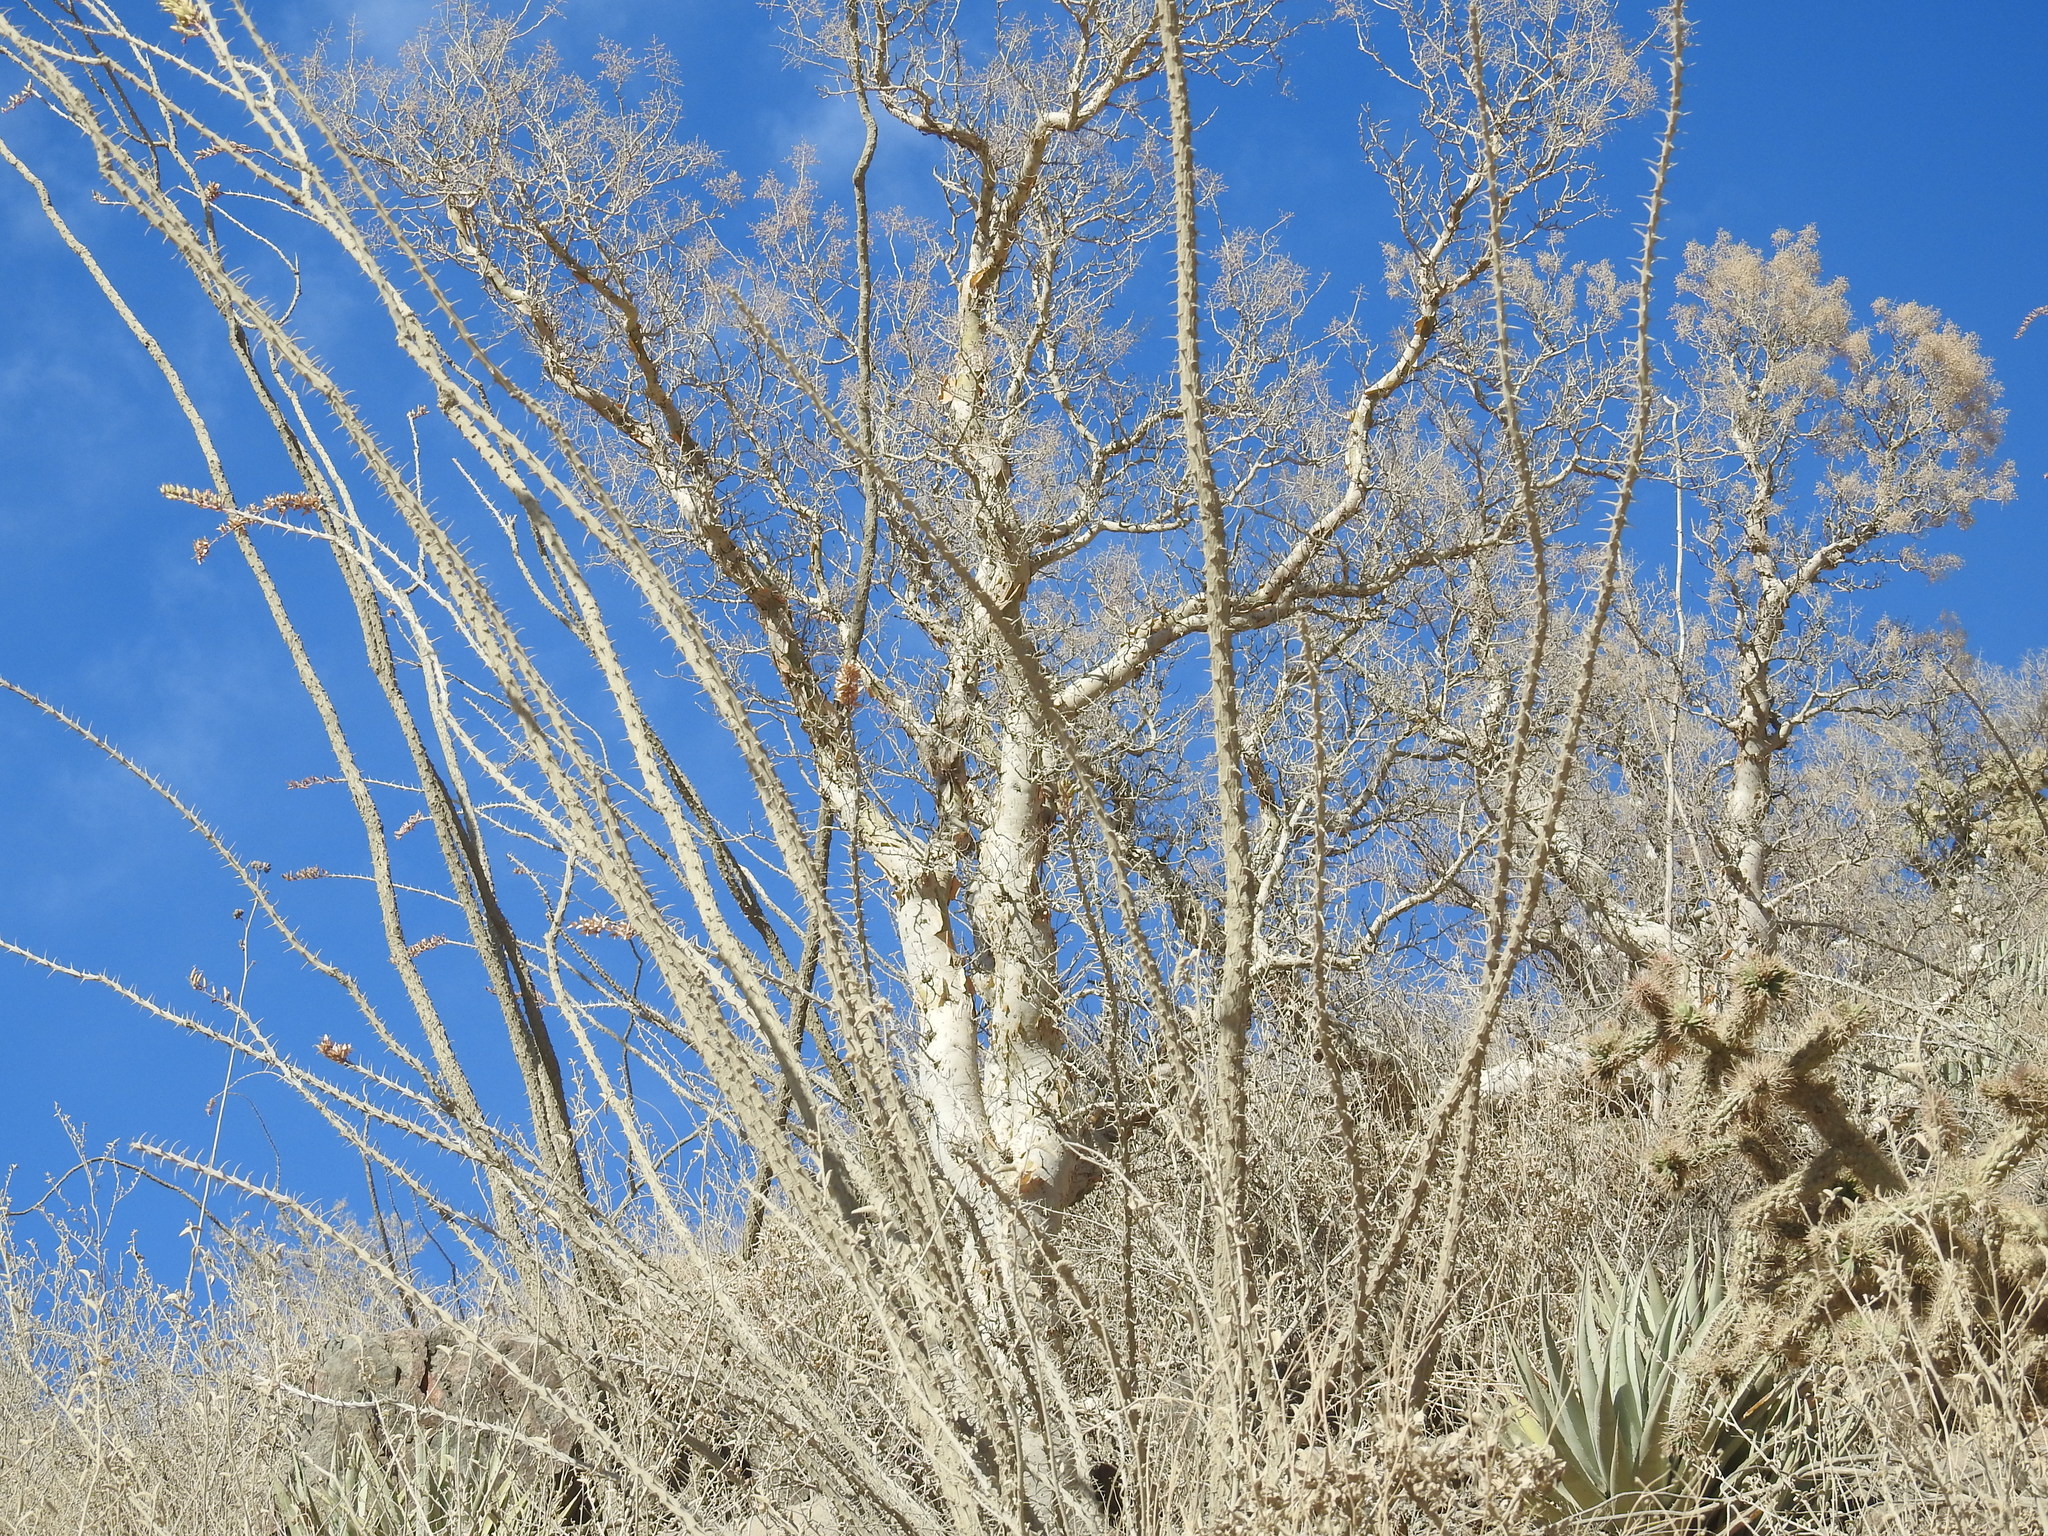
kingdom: Plantae
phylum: Tracheophyta
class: Magnoliopsida
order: Sapindales
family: Anacardiaceae
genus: Pachycormus
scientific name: Pachycormus discolor
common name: Succulent elephant trees
